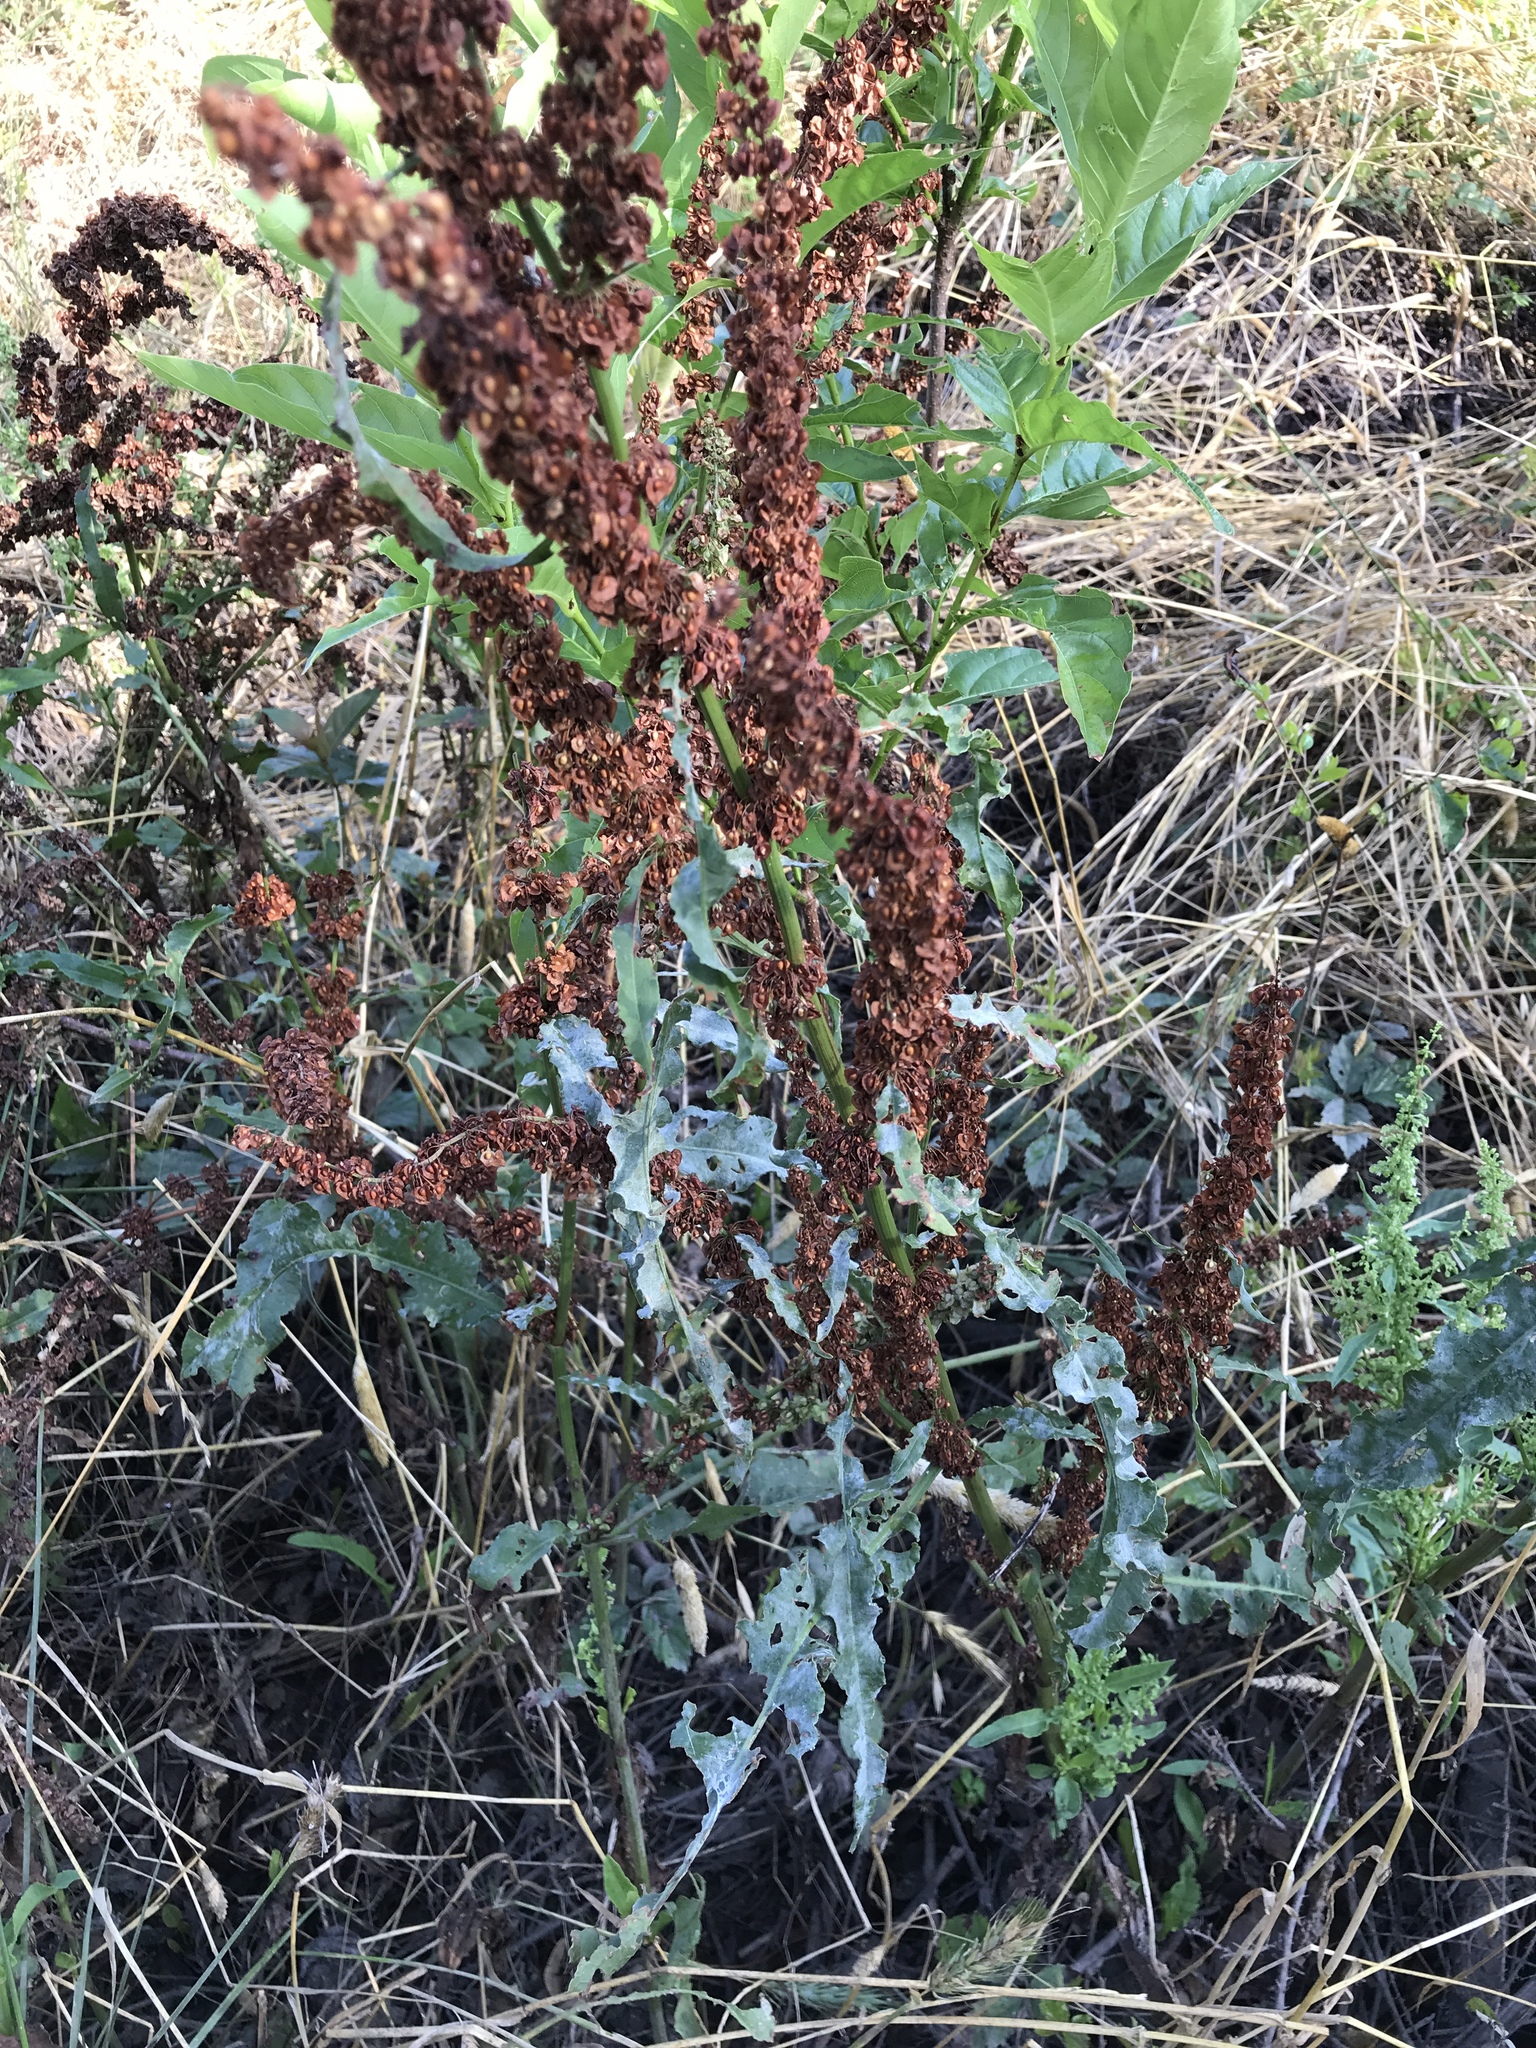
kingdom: Plantae
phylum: Tracheophyta
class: Magnoliopsida
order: Caryophyllales
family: Polygonaceae
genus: Rumex
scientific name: Rumex crispus
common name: Curled dock
